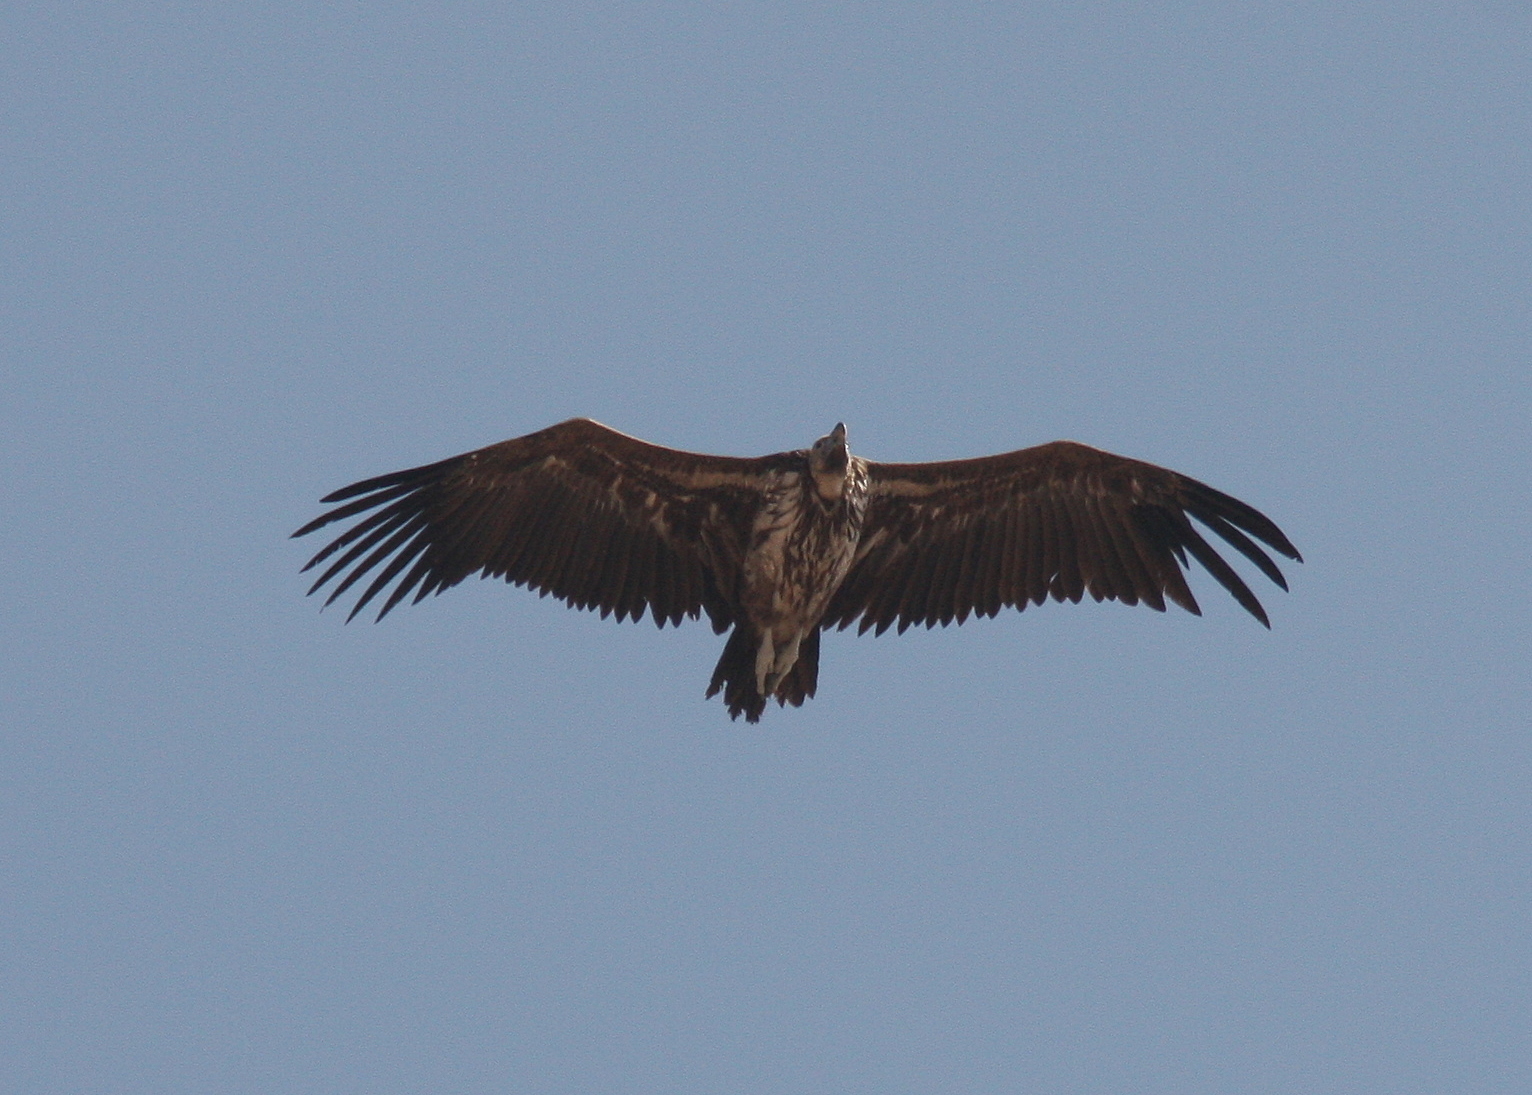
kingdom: Animalia
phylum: Chordata
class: Aves
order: Accipitriformes
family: Accipitridae
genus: Torgos
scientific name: Torgos tracheliotos
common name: Lappet-faced vulture
